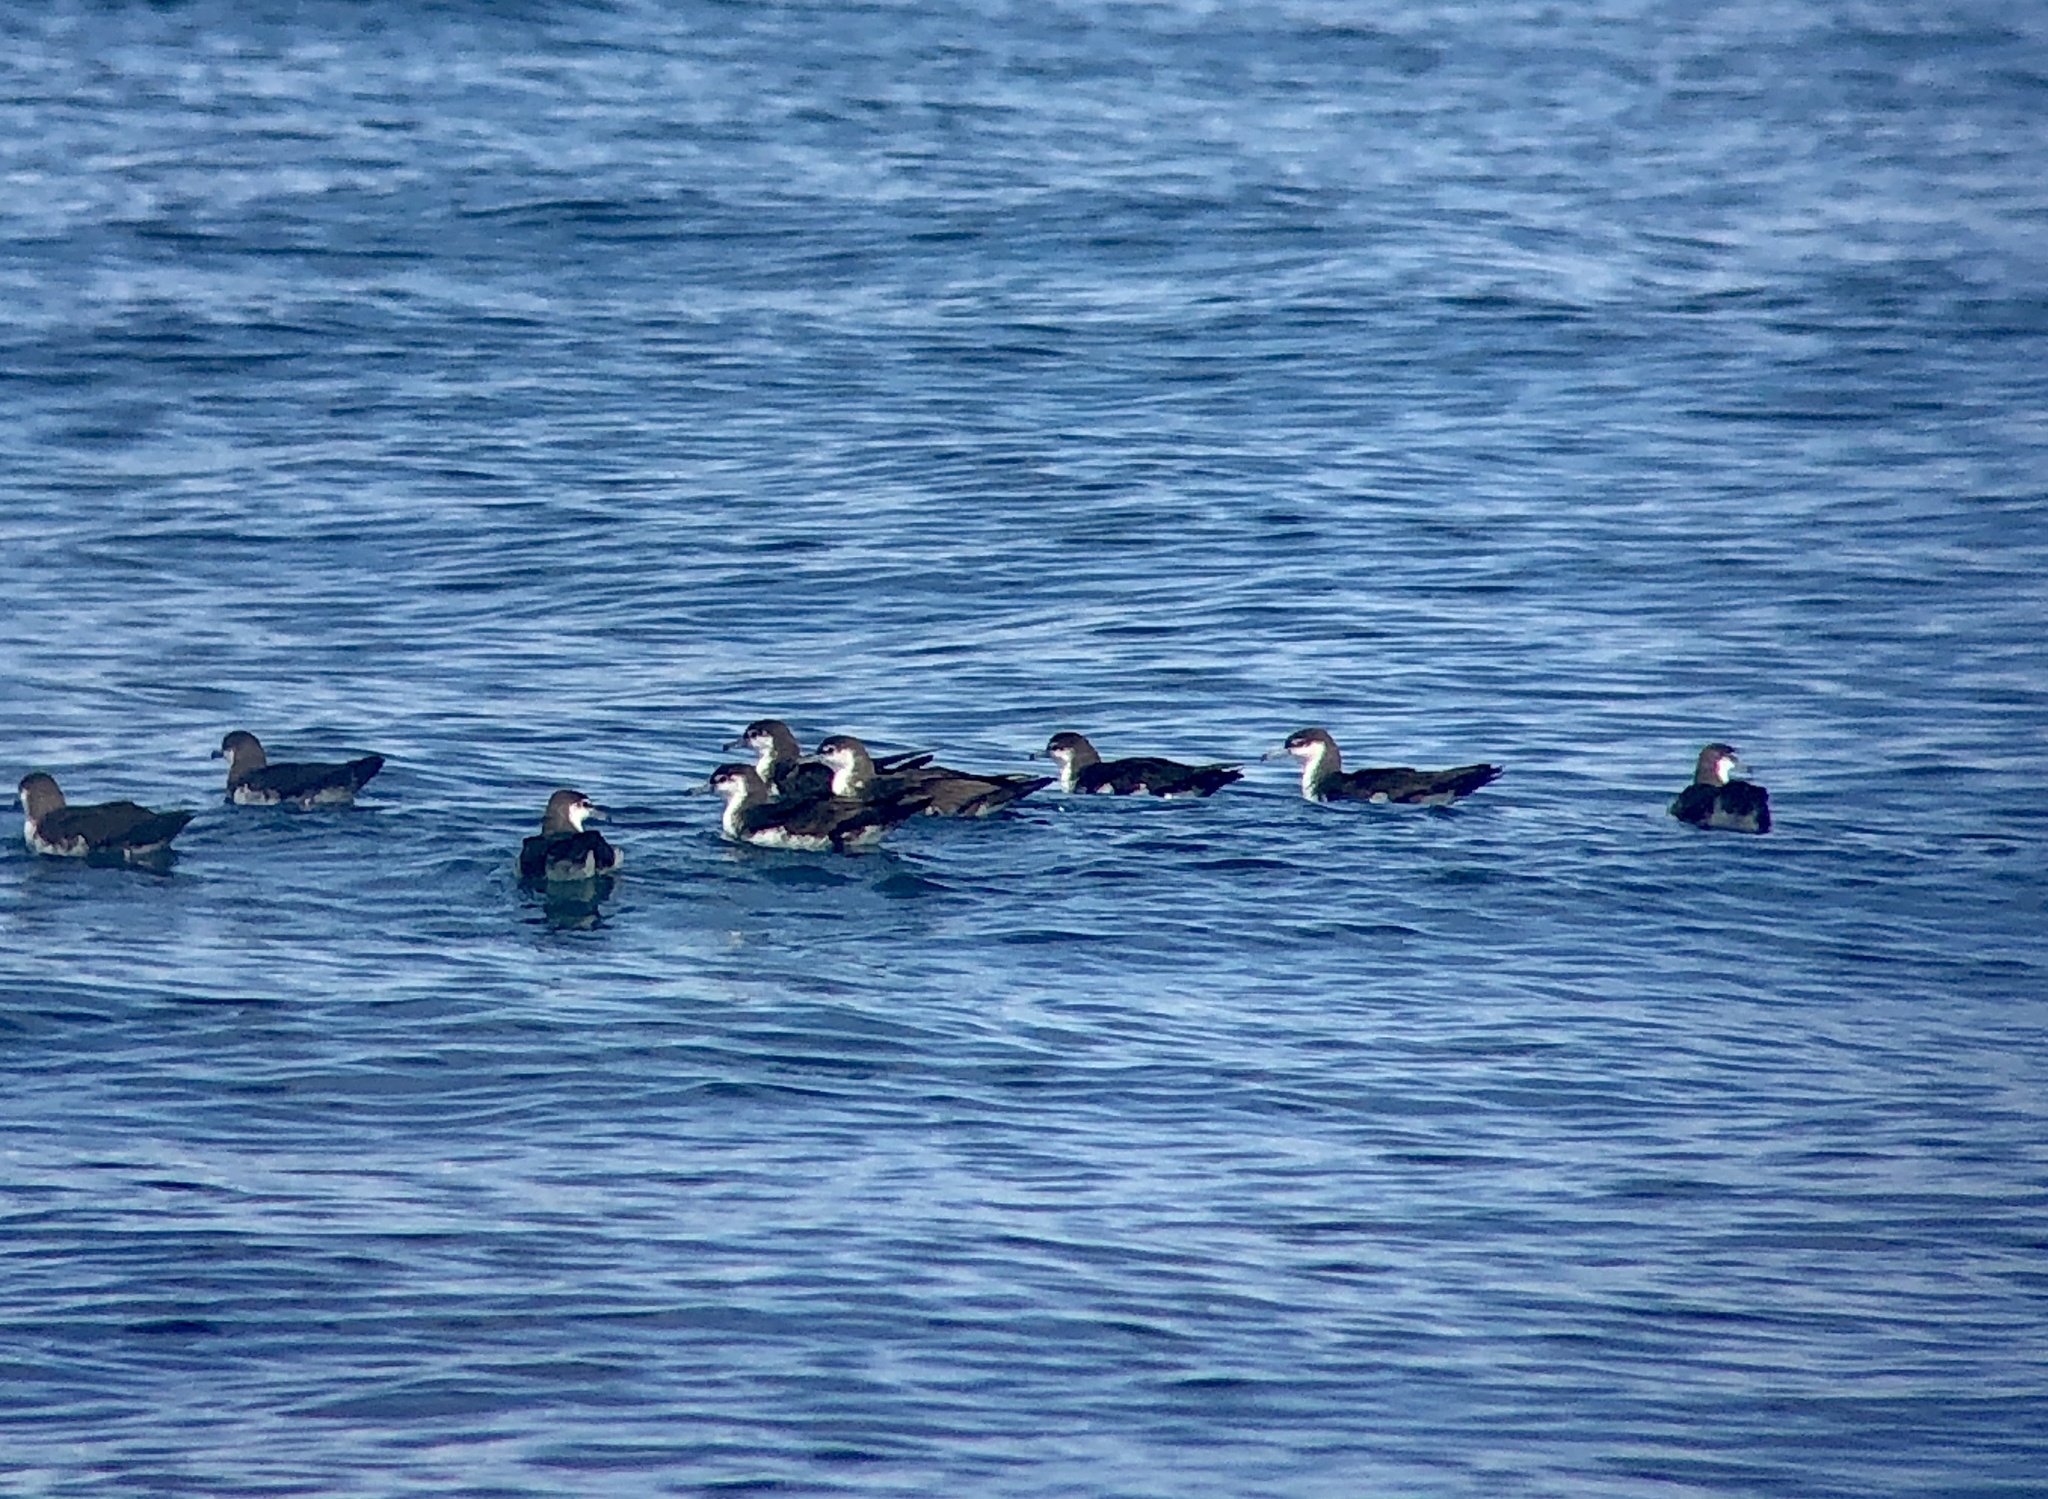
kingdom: Animalia
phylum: Chordata
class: Aves
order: Procellariiformes
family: Procellariidae
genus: Puffinus
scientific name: Puffinus lherminieri
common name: Audubon's shearwater
